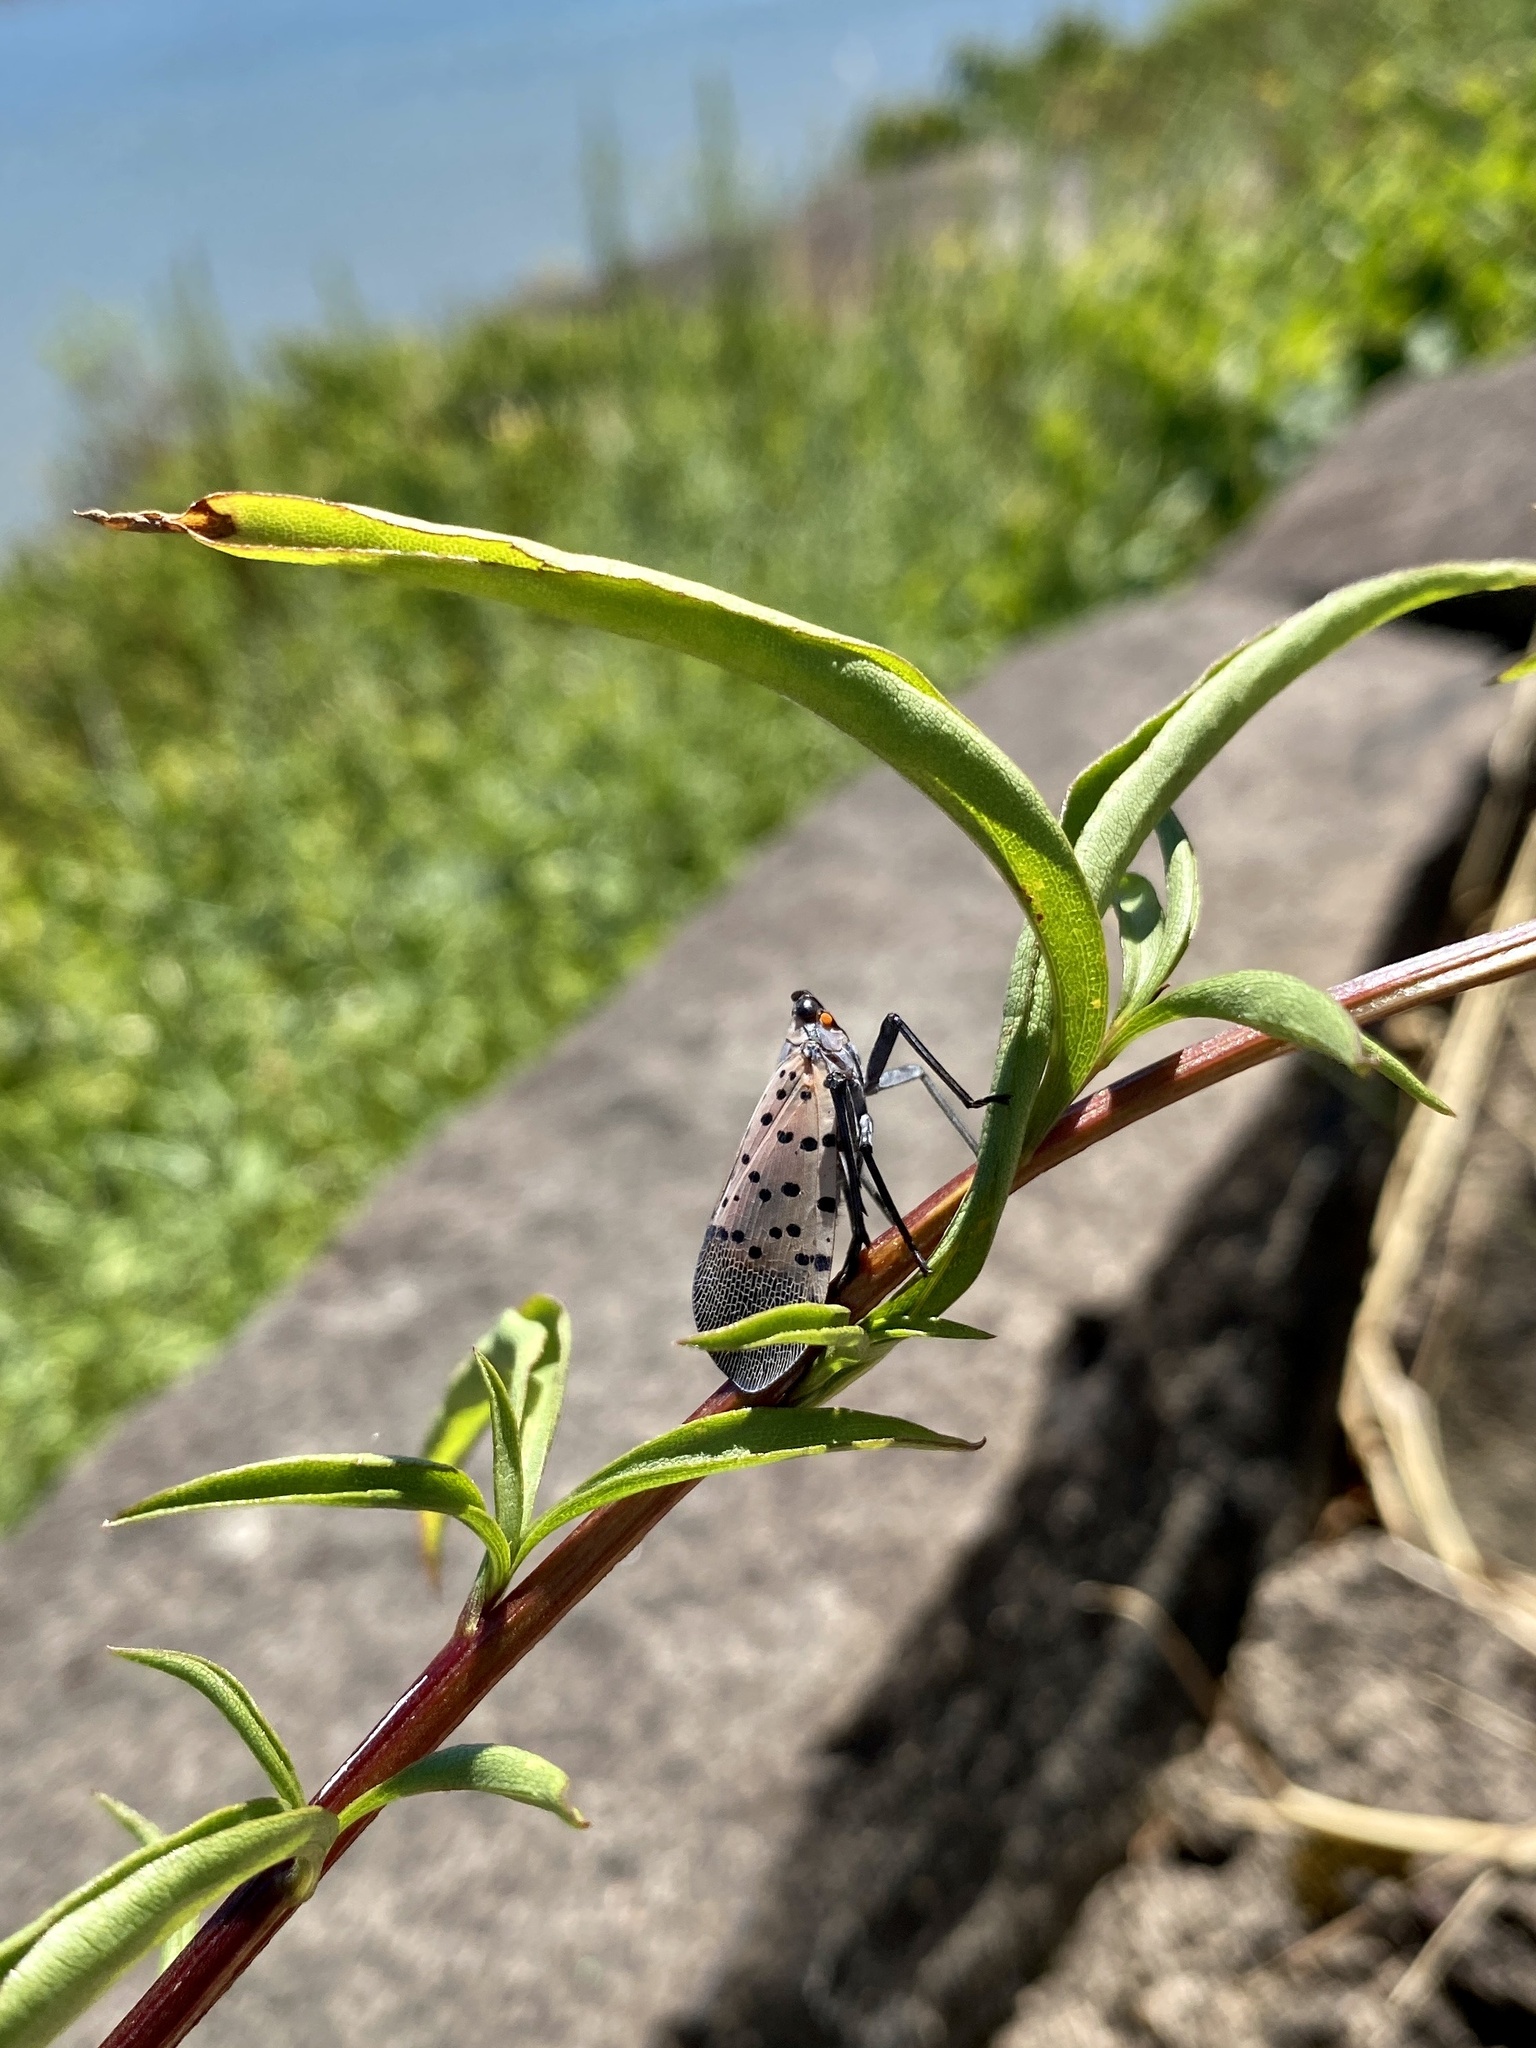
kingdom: Animalia
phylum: Arthropoda
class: Insecta
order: Hemiptera
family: Fulgoridae
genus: Lycorma
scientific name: Lycorma delicatula
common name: Spotted lanternfly
